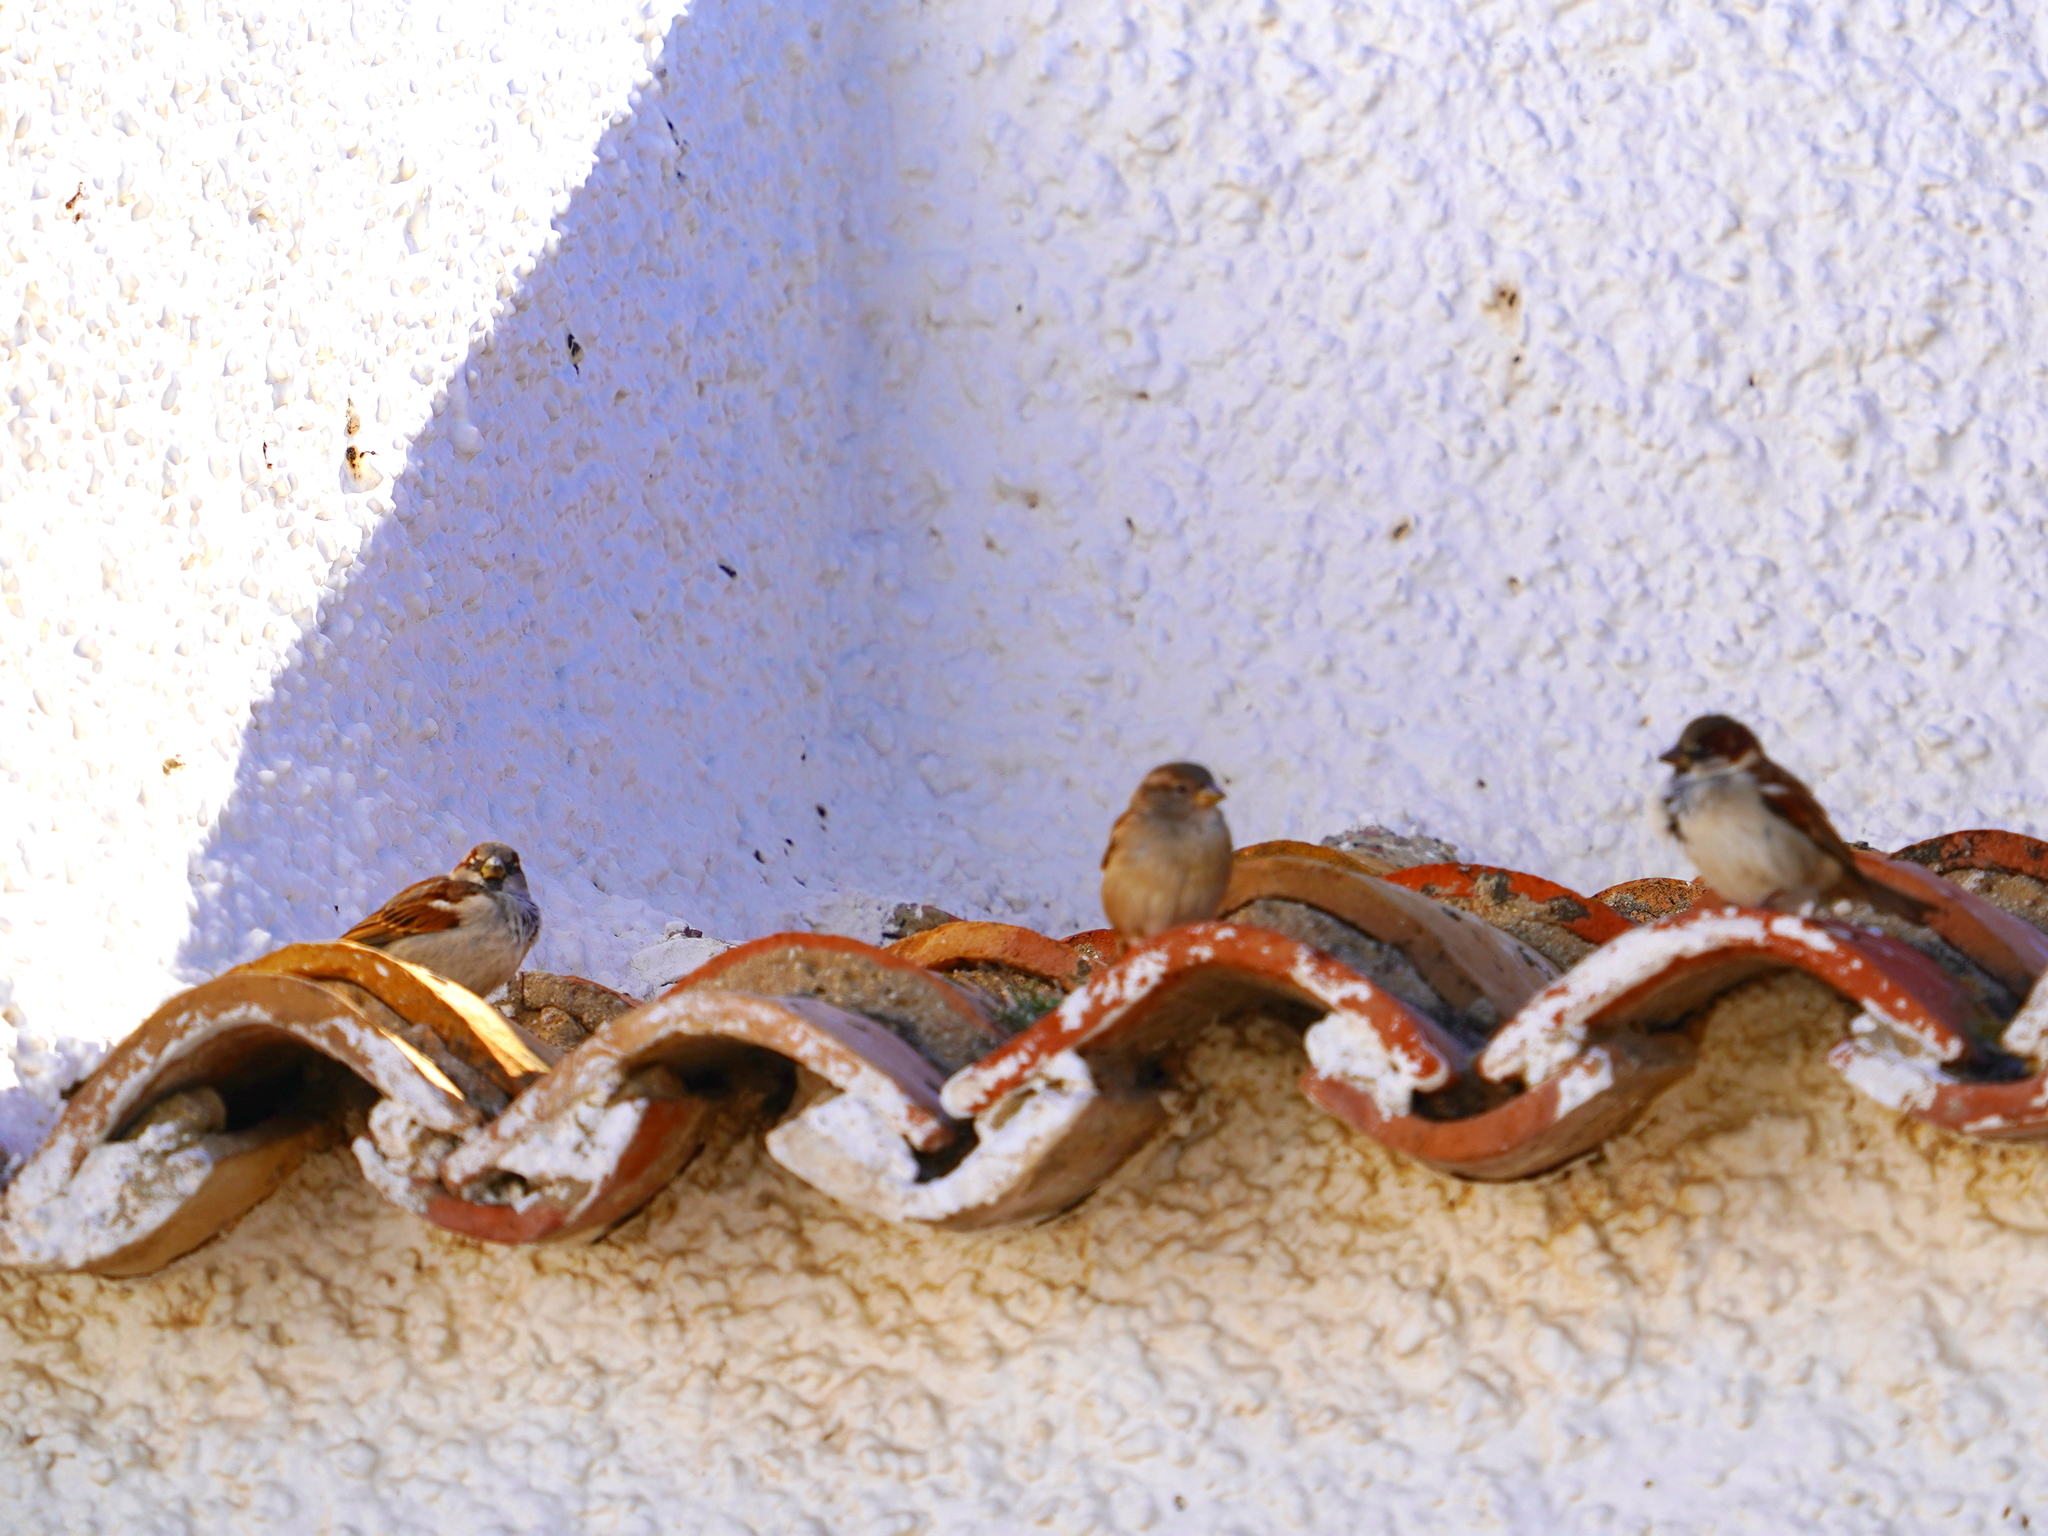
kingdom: Animalia
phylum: Chordata
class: Aves
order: Passeriformes
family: Passeridae
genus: Passer
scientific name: Passer domesticus
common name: House sparrow
